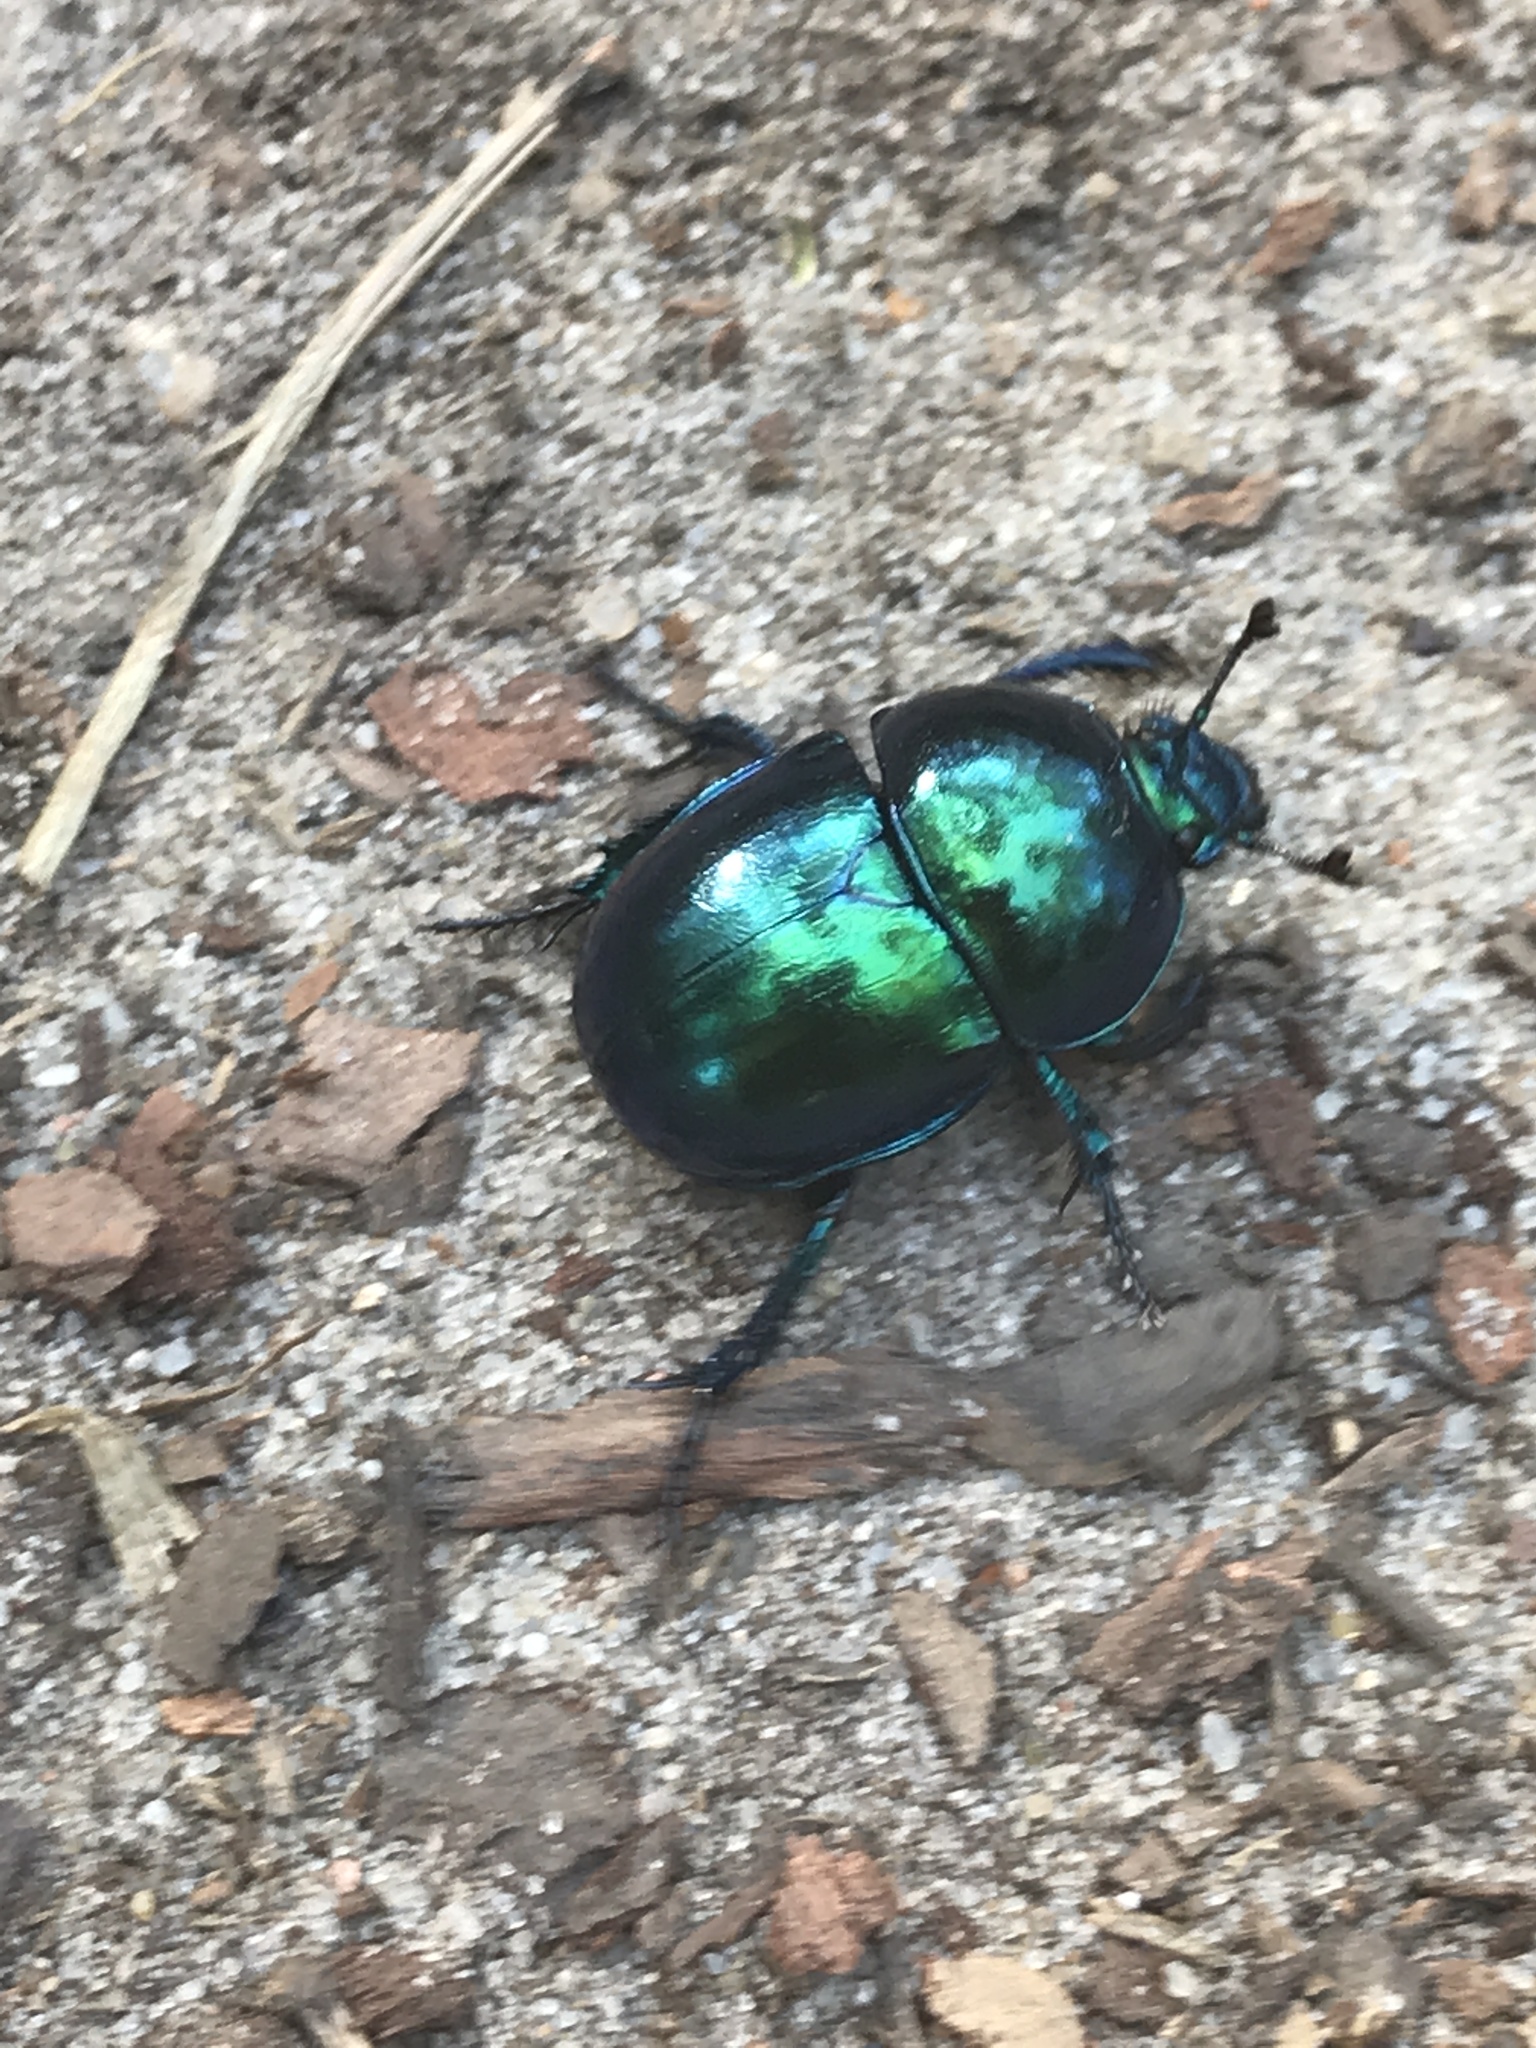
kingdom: Animalia
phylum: Arthropoda
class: Insecta
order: Coleoptera
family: Geotrupidae
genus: Trypocopris
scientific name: Trypocopris vernalis
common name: Spring dumbledor
